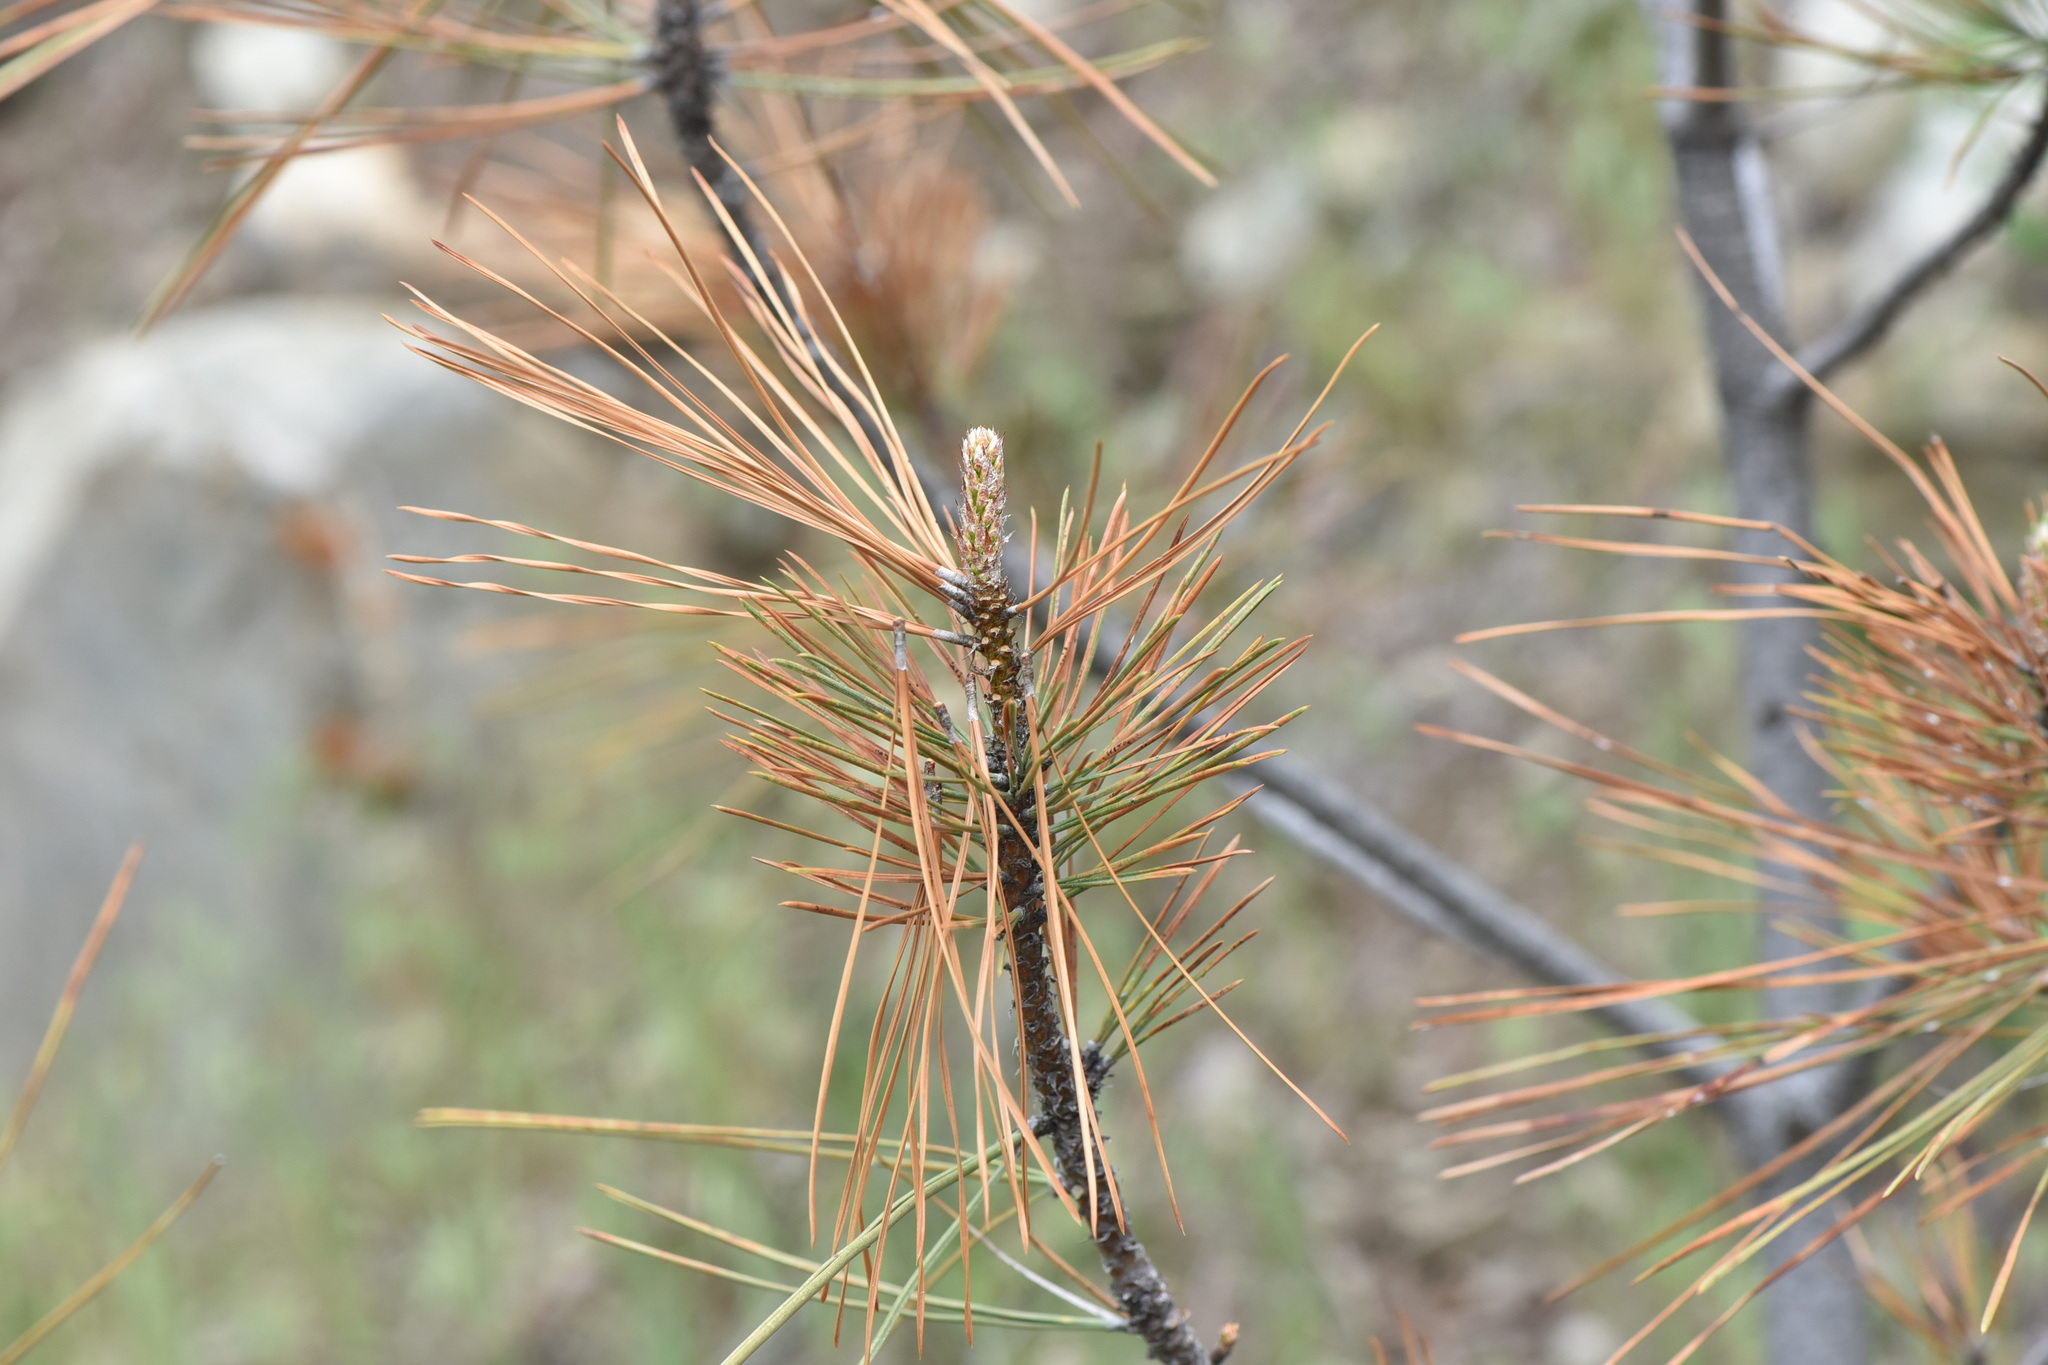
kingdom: Plantae
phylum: Tracheophyta
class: Pinopsida
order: Pinales
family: Pinaceae
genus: Pinus
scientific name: Pinus ponderosa
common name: Western yellow-pine
